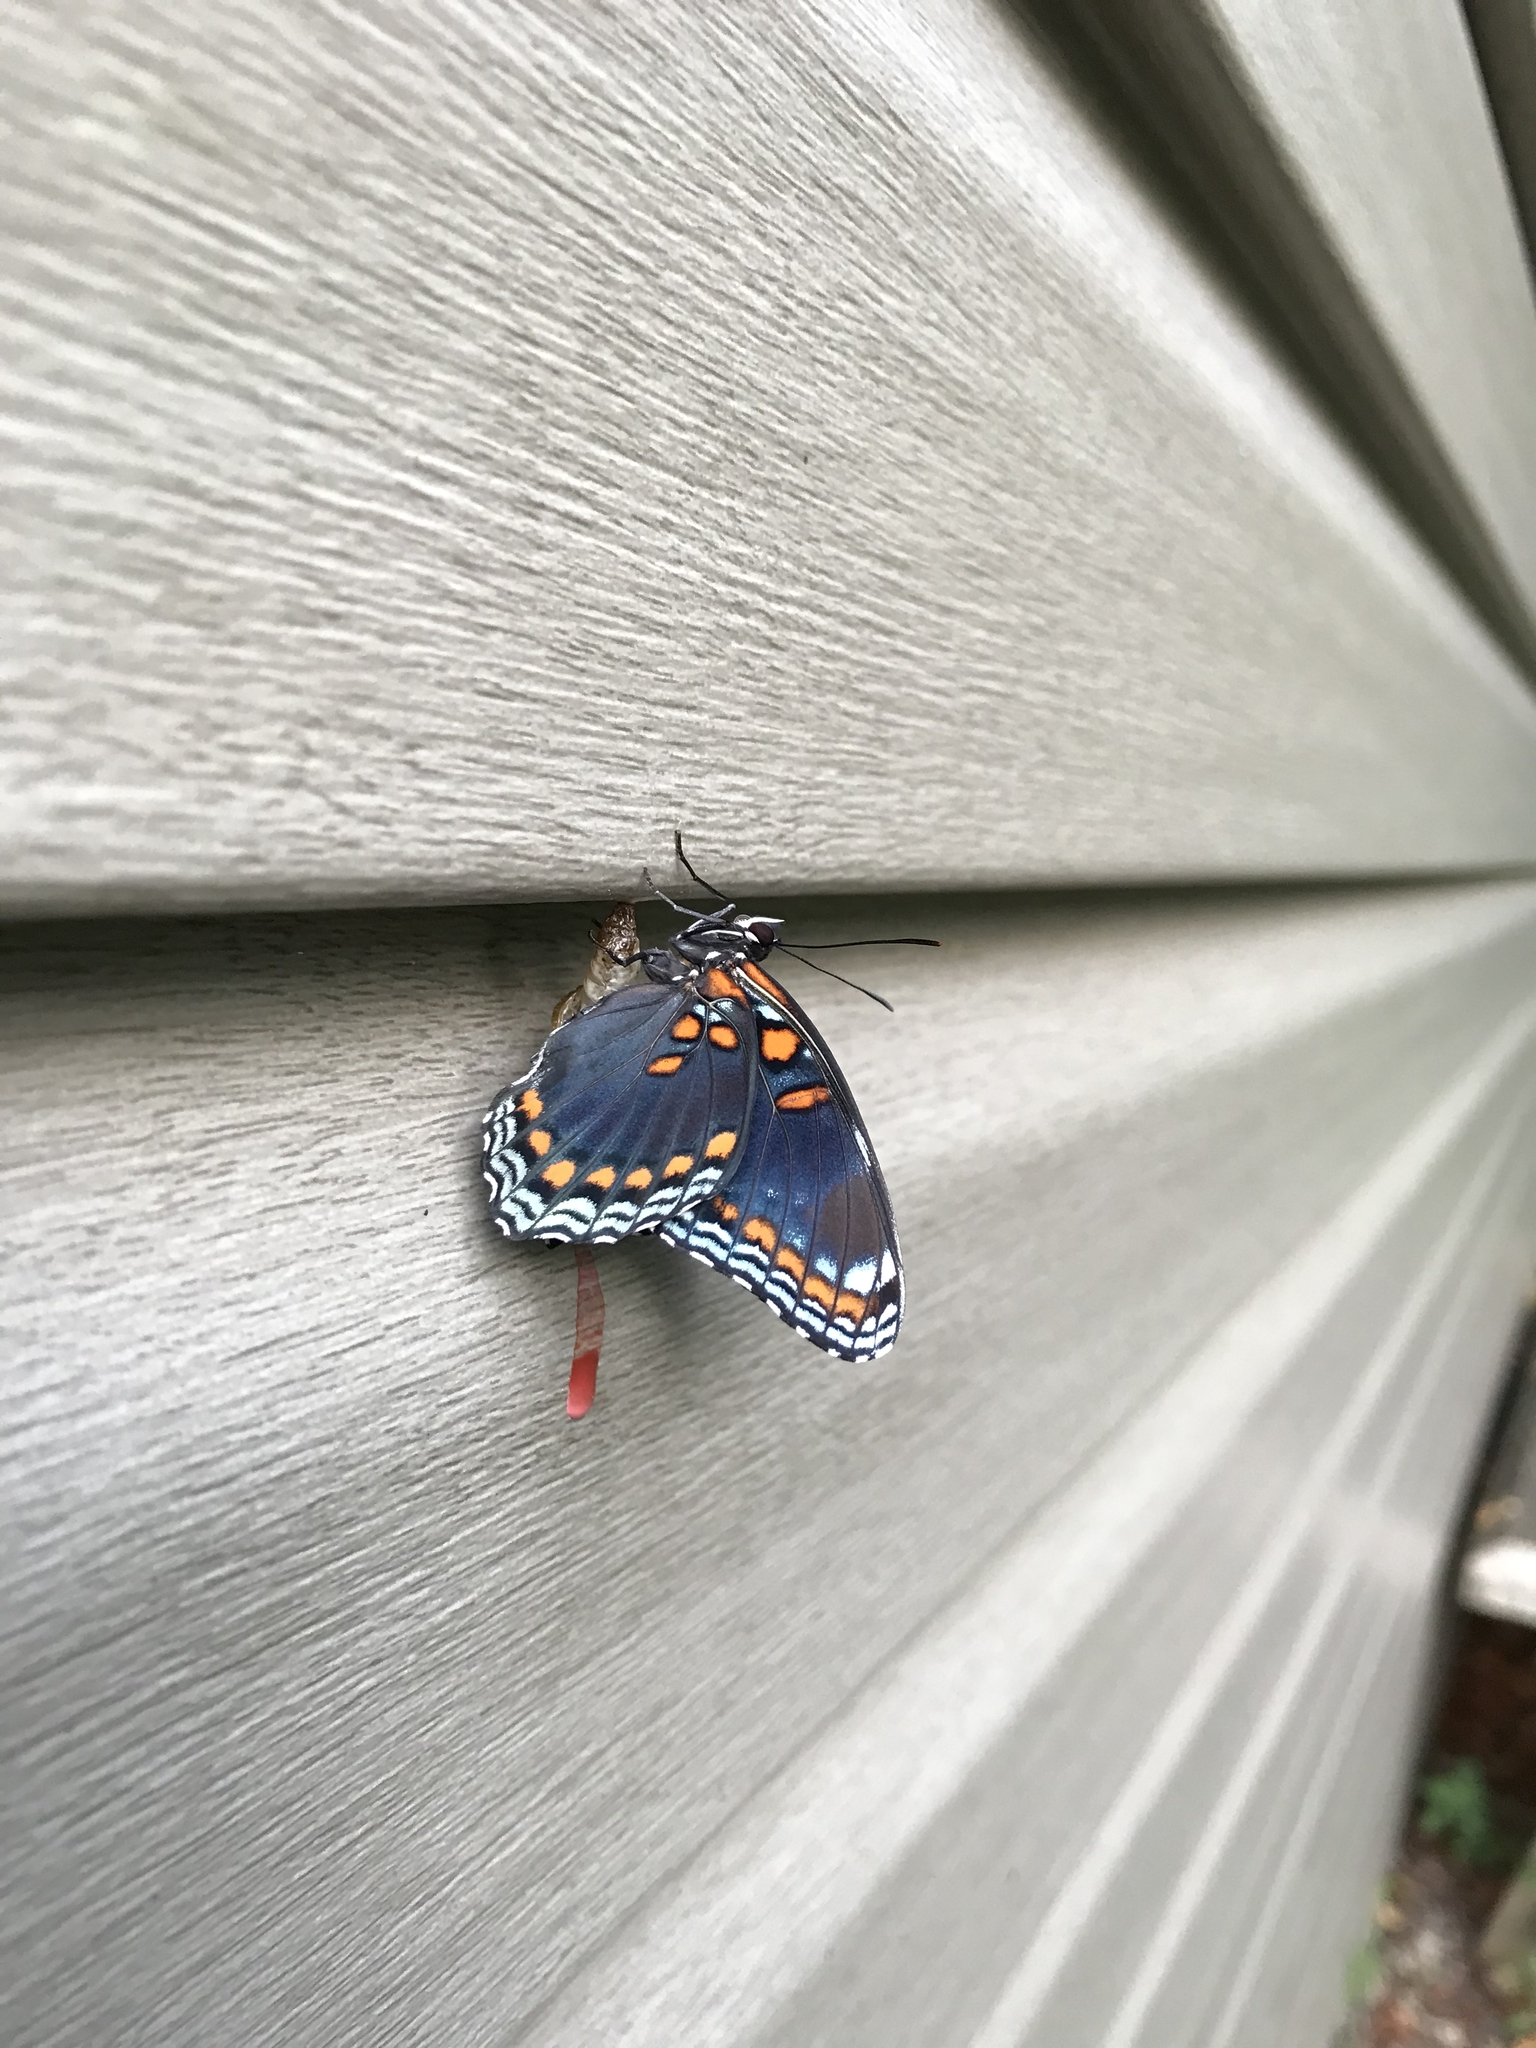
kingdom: Animalia
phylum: Arthropoda
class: Insecta
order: Lepidoptera
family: Nymphalidae
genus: Limenitis
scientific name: Limenitis arthemis
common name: Red-spotted admiral
